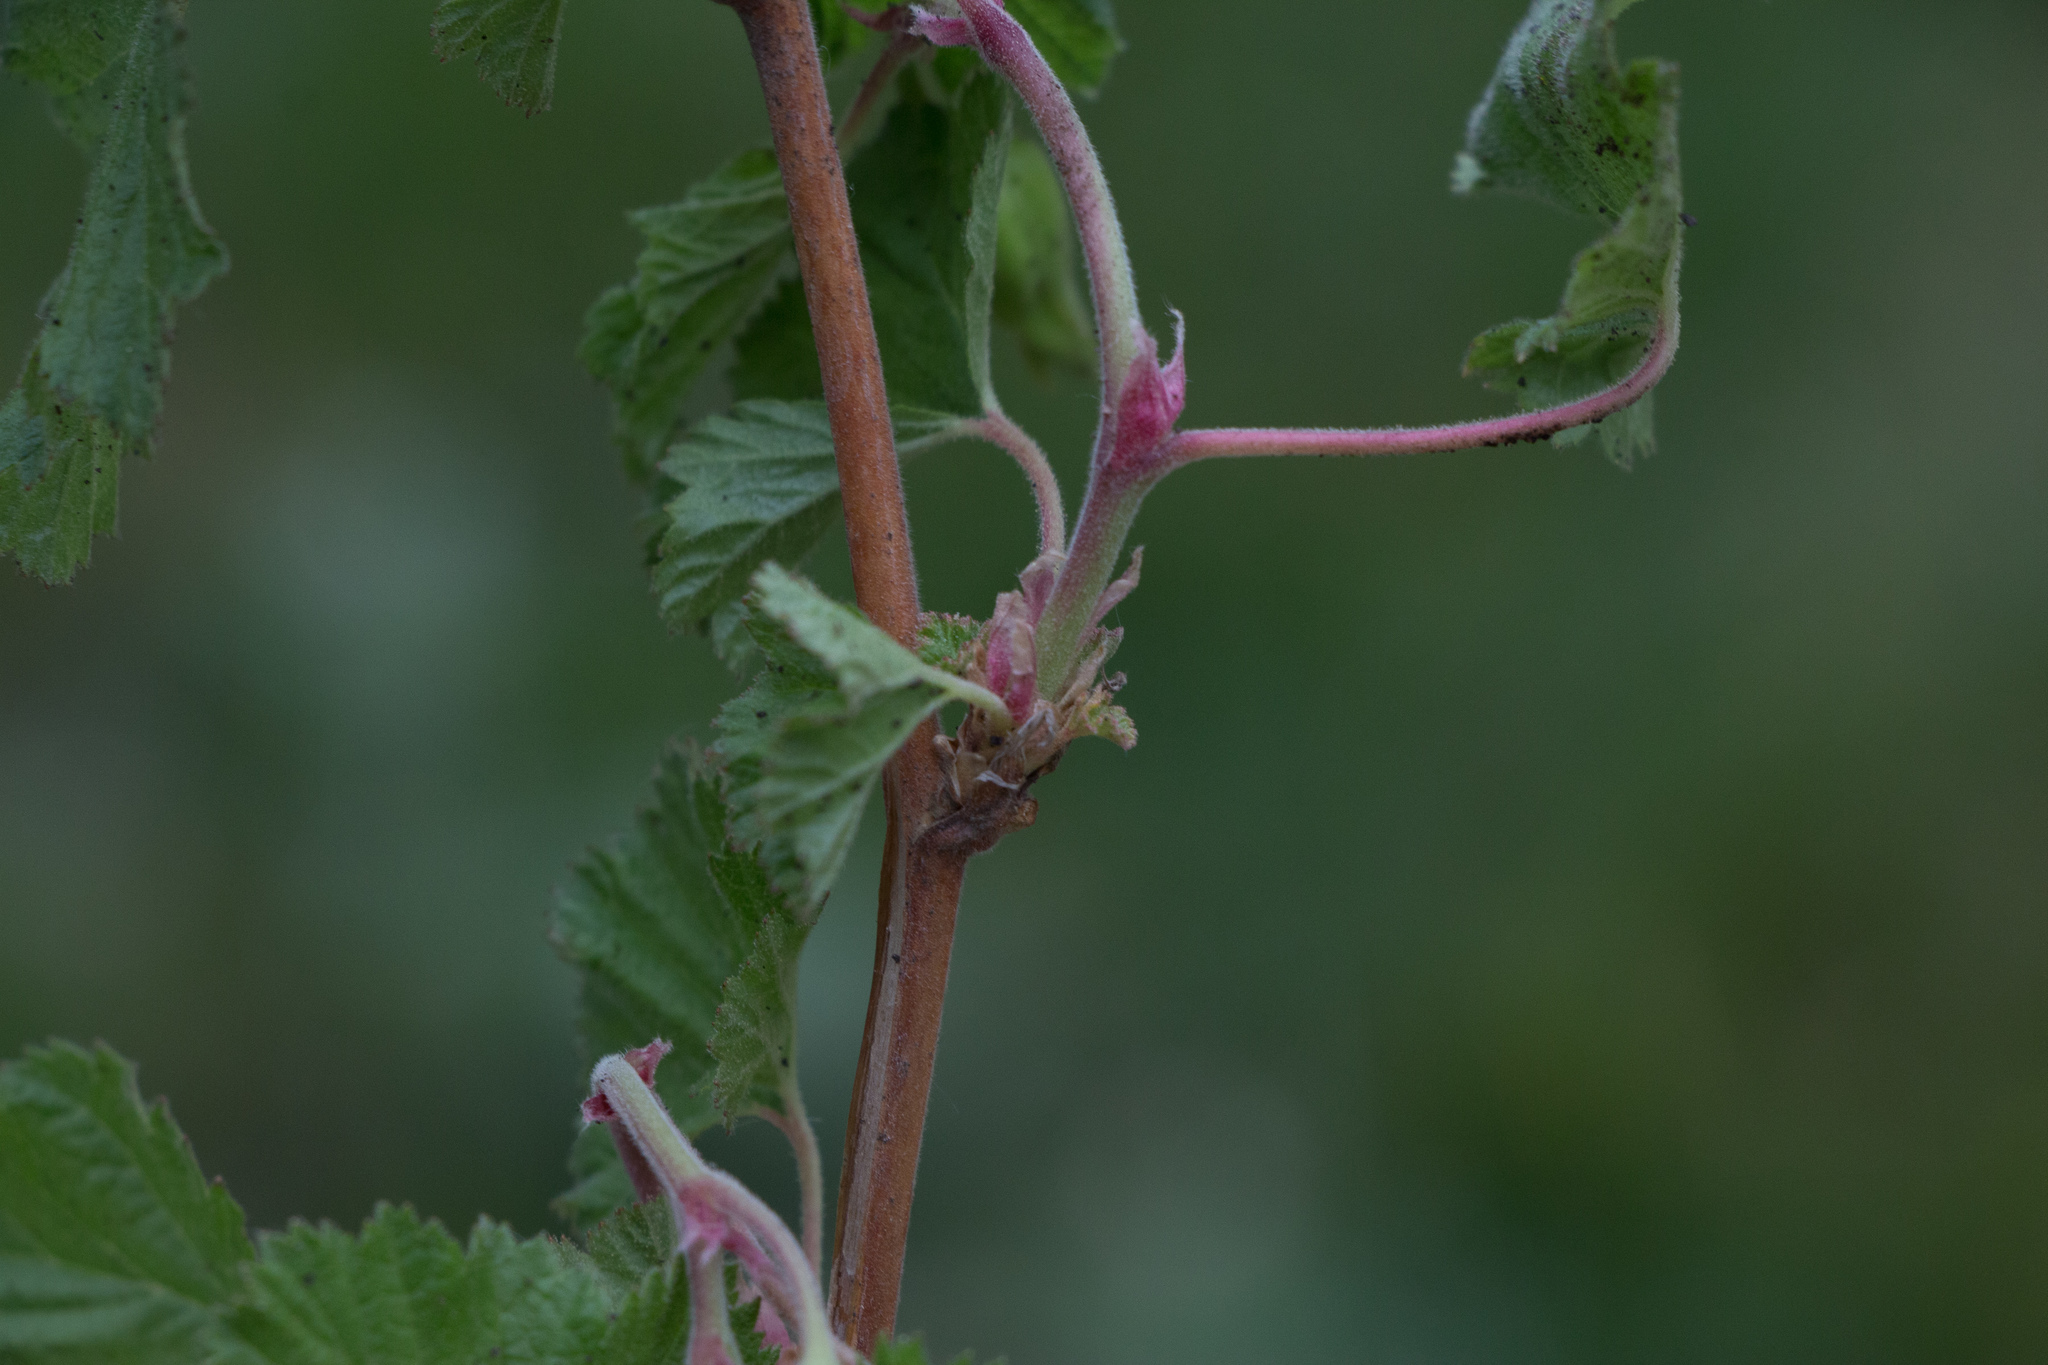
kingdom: Plantae
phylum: Tracheophyta
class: Magnoliopsida
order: Rosales
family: Rosaceae
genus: Rubus
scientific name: Rubus deliciosus
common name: Rocky mountain raspberry
